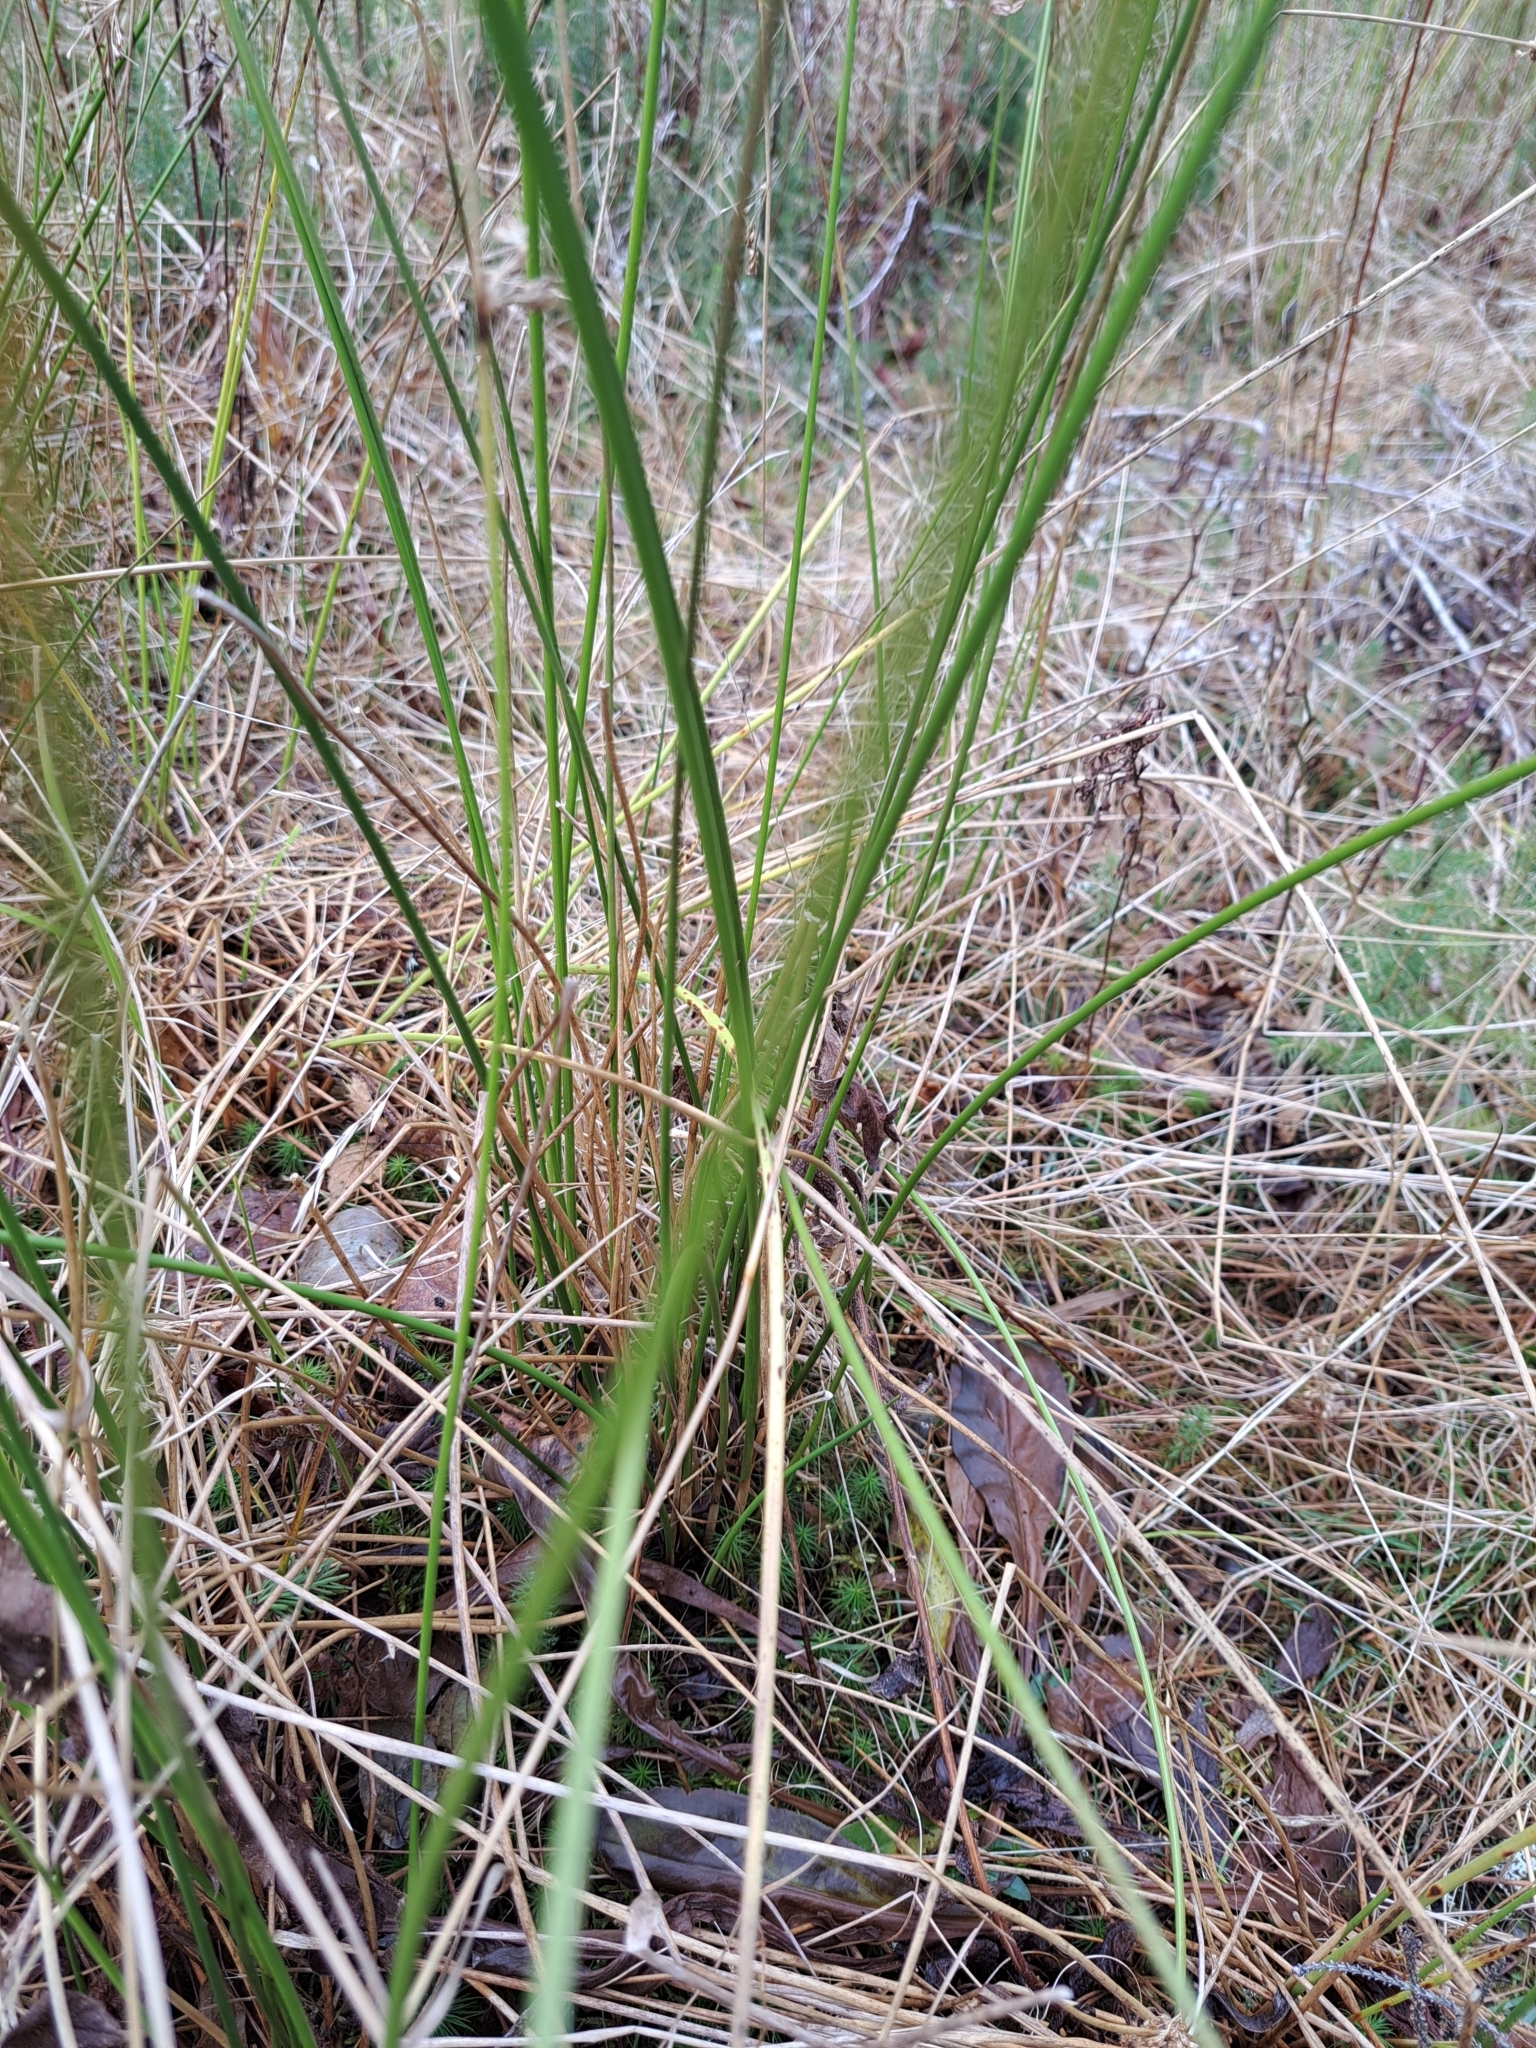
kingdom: Plantae
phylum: Tracheophyta
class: Liliopsida
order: Poales
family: Juncaceae
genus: Juncus
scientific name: Juncus effusus
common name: Soft rush
